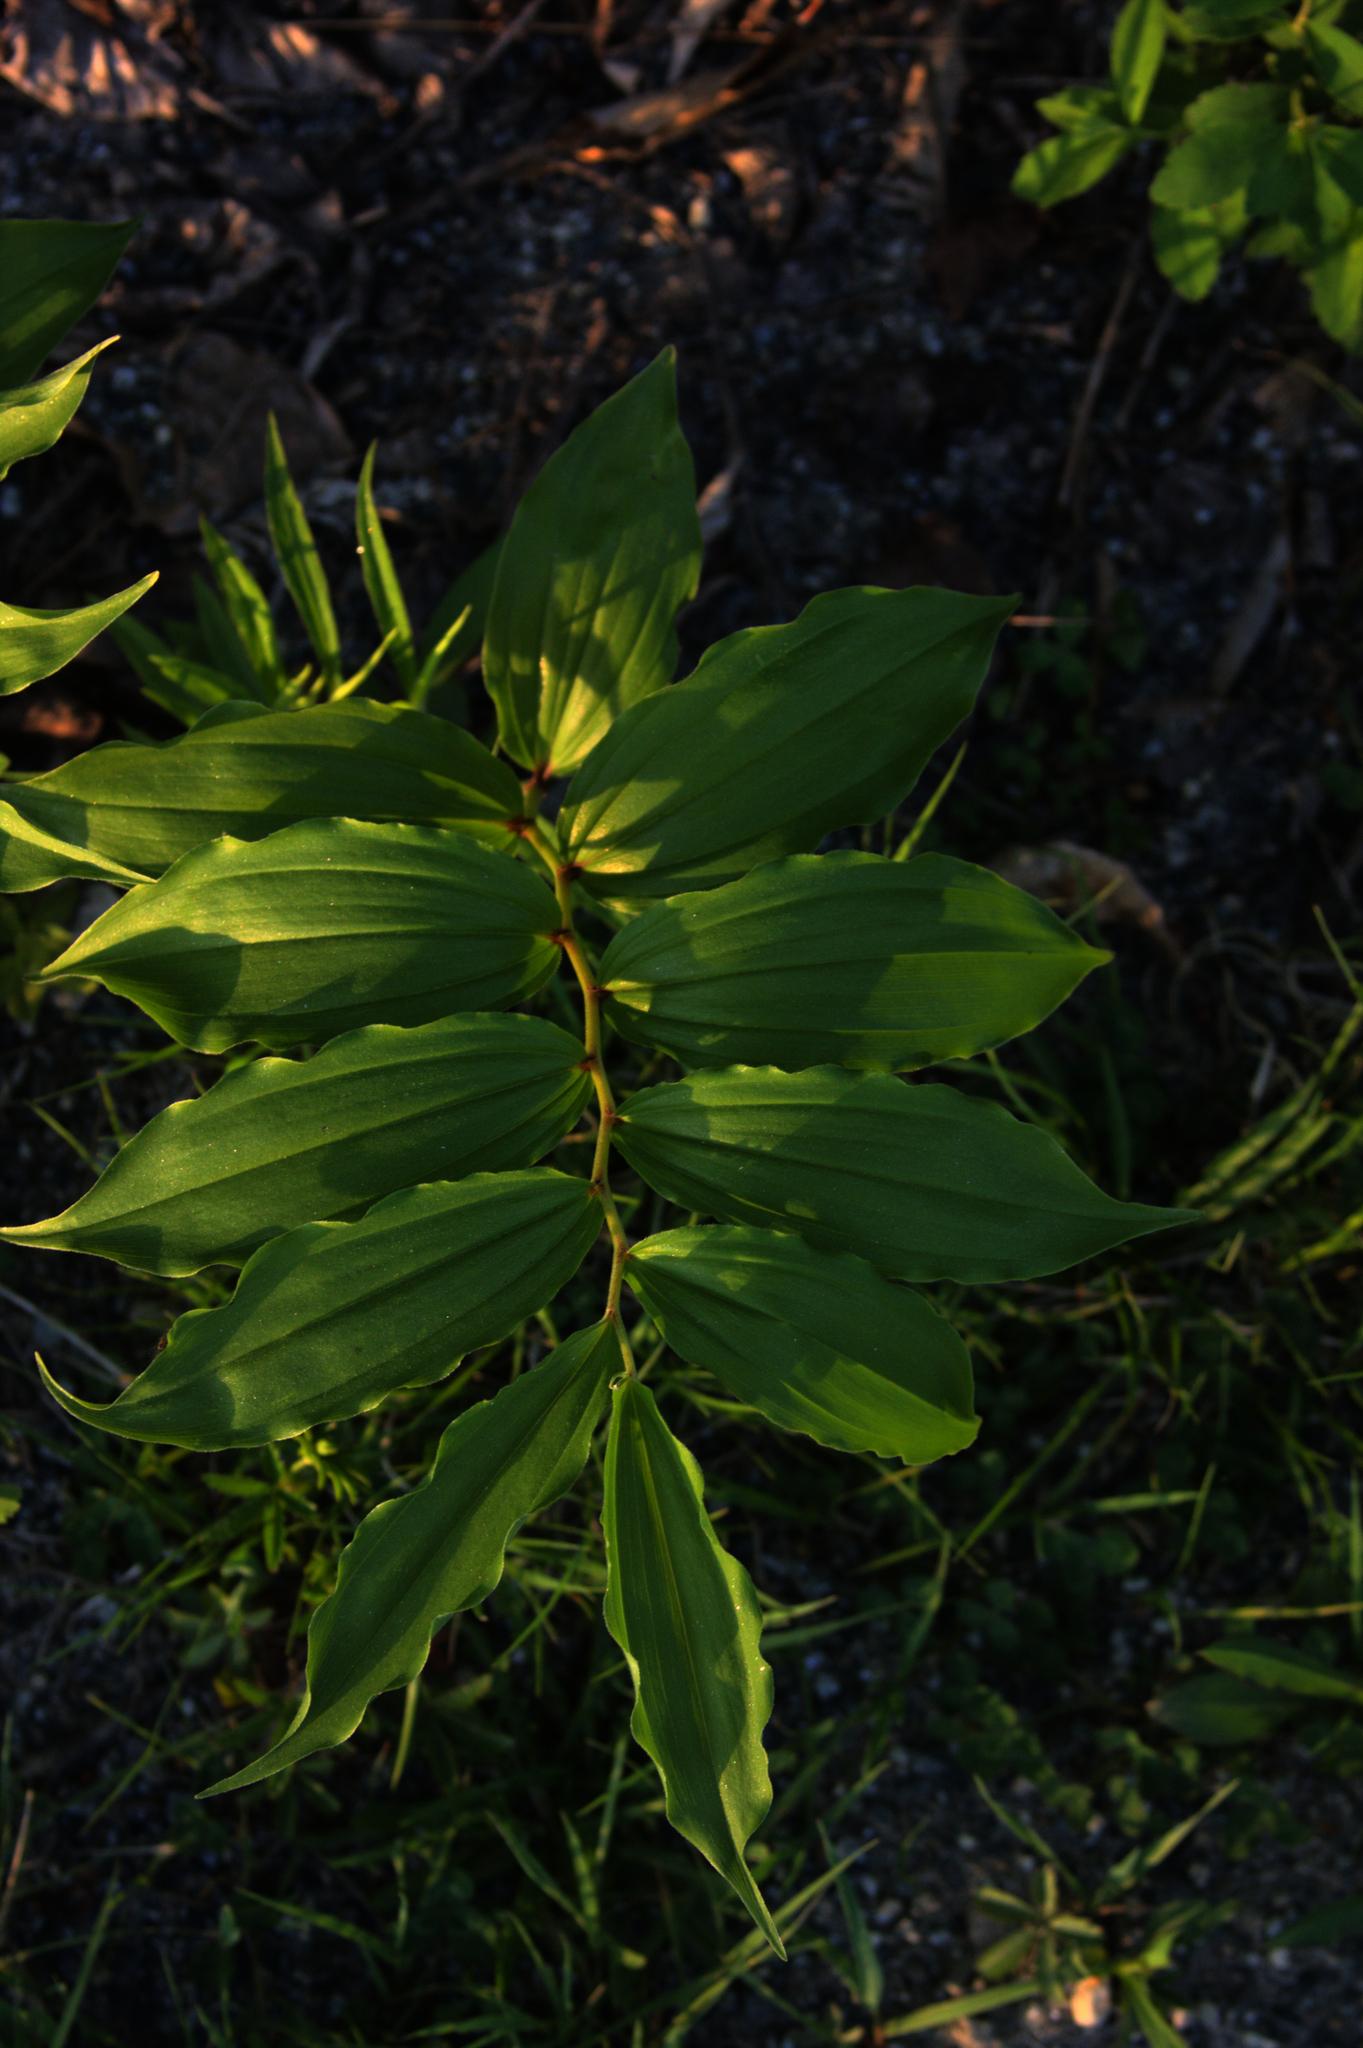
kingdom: Plantae
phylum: Tracheophyta
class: Liliopsida
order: Asparagales
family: Asparagaceae
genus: Maianthemum
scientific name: Maianthemum racemosum
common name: False spikenard
